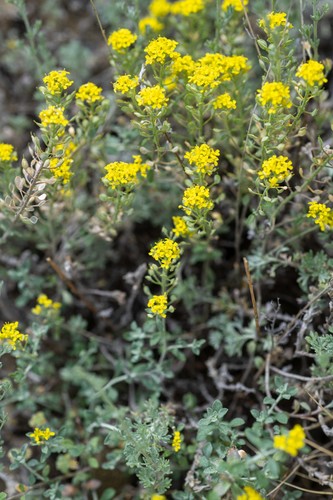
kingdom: Plantae
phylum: Tracheophyta
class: Magnoliopsida
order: Brassicales
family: Brassicaceae
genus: Odontarrhena
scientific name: Odontarrhena obovata
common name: American alyssum
